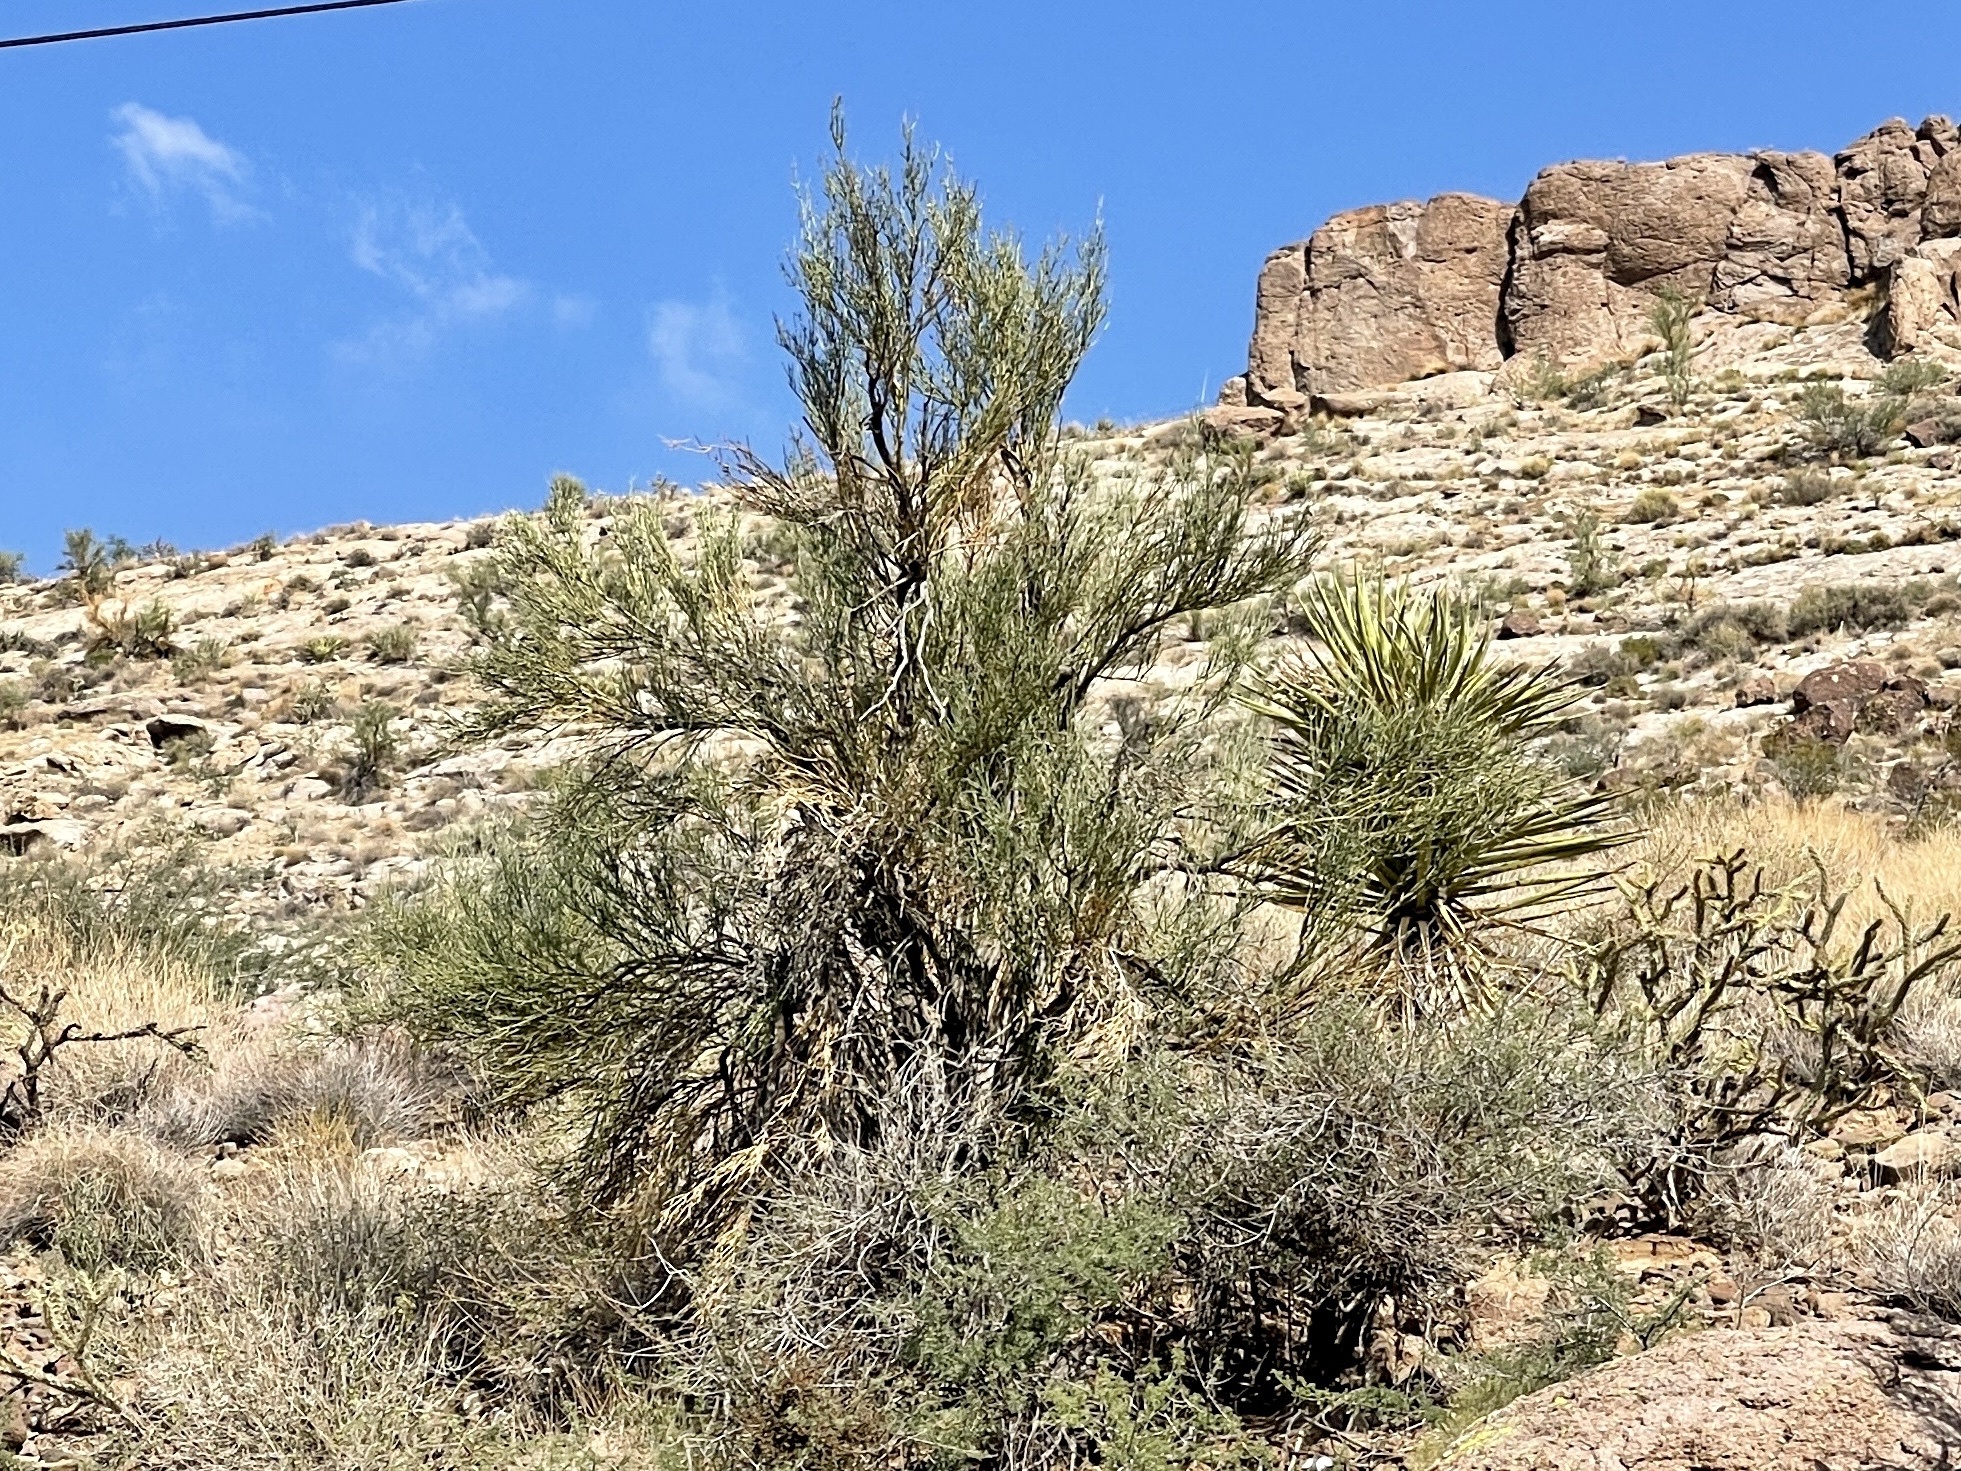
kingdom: Plantae
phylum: Tracheophyta
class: Magnoliopsida
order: Celastrales
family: Celastraceae
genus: Canotia
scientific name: Canotia holacantha
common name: Crucifixion thorns
